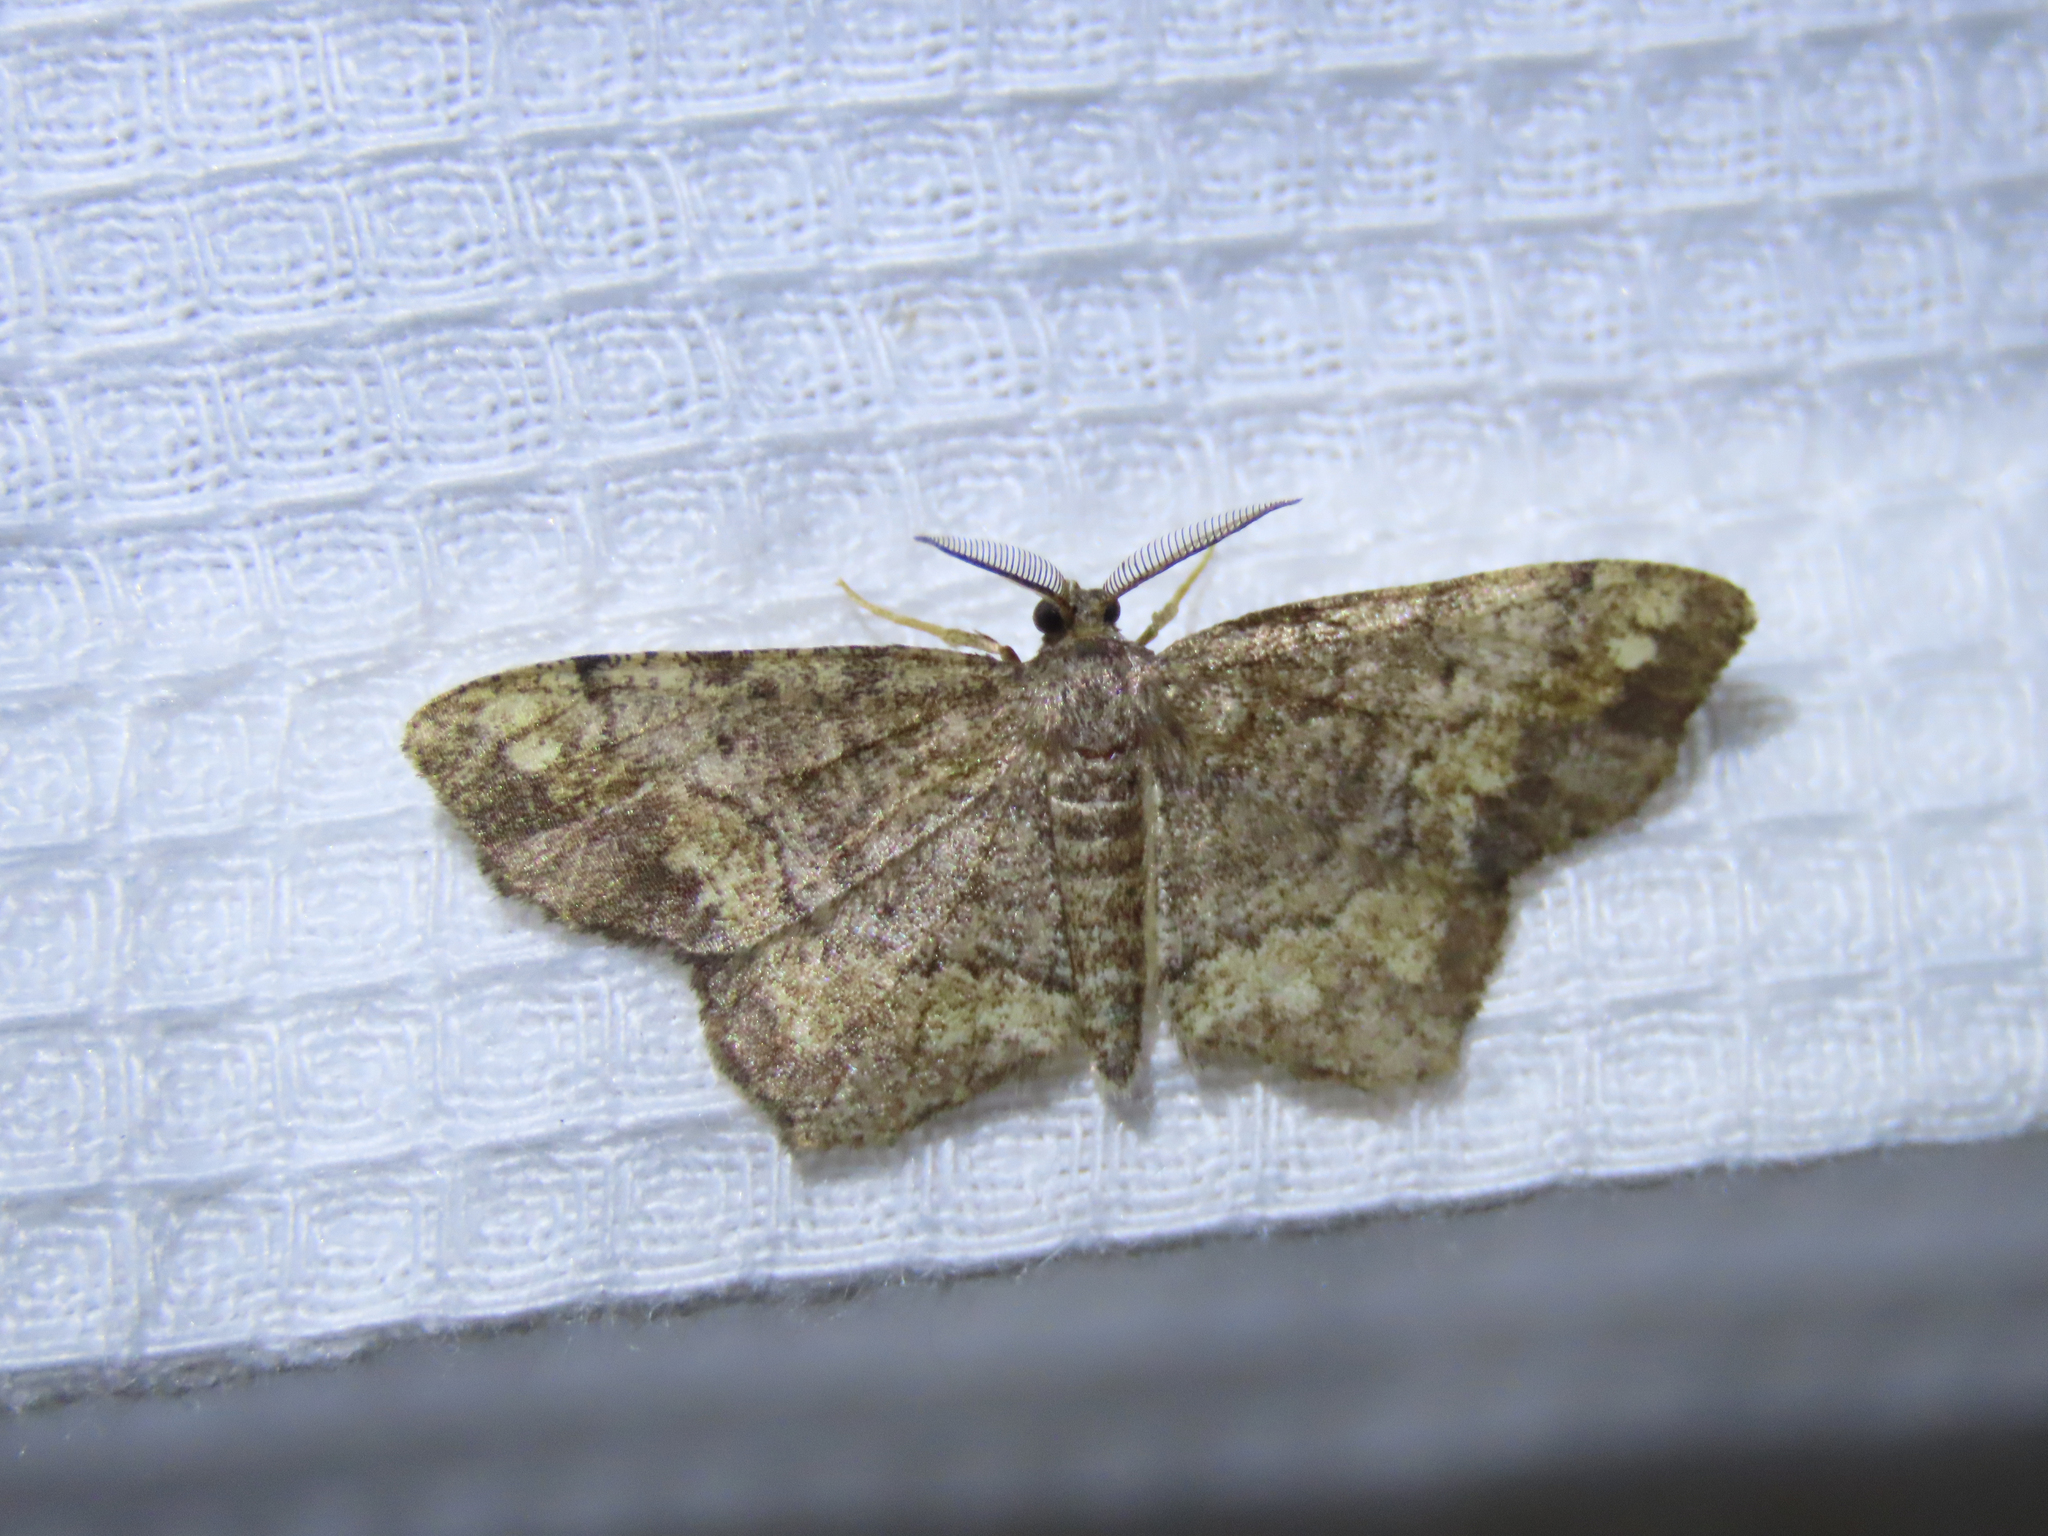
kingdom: Animalia
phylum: Arthropoda
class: Insecta
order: Lepidoptera
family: Geometridae
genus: Hypagyrtis
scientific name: Hypagyrtis unipunctata
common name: One-spotted variant
